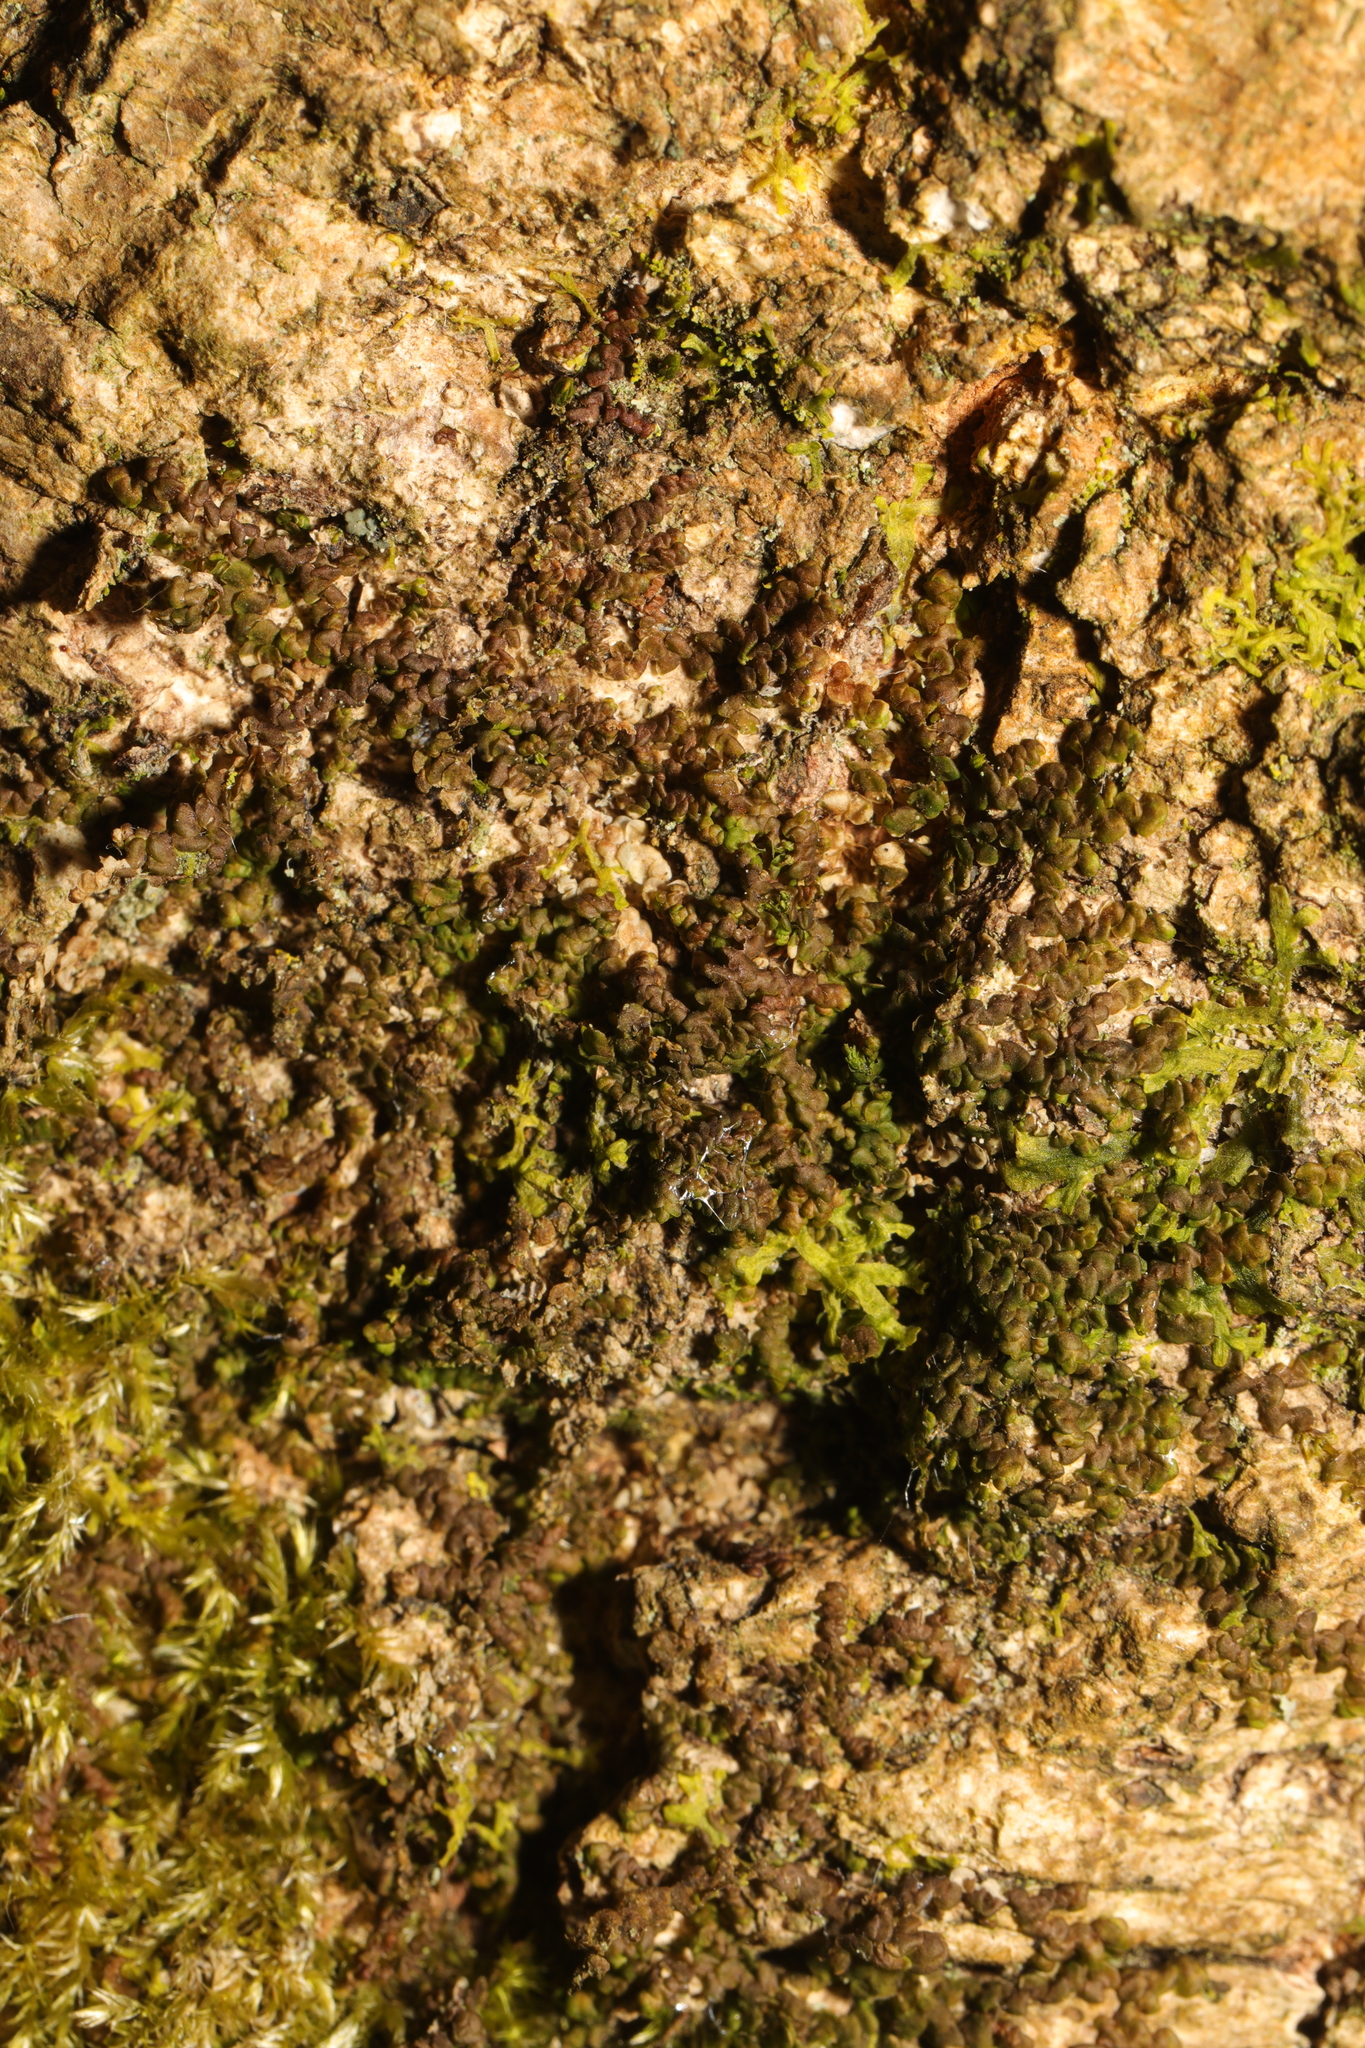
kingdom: Plantae
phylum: Marchantiophyta
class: Jungermanniopsida
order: Porellales
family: Frullaniaceae
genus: Frullania
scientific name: Frullania dilatata
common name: Dilated scalewort
